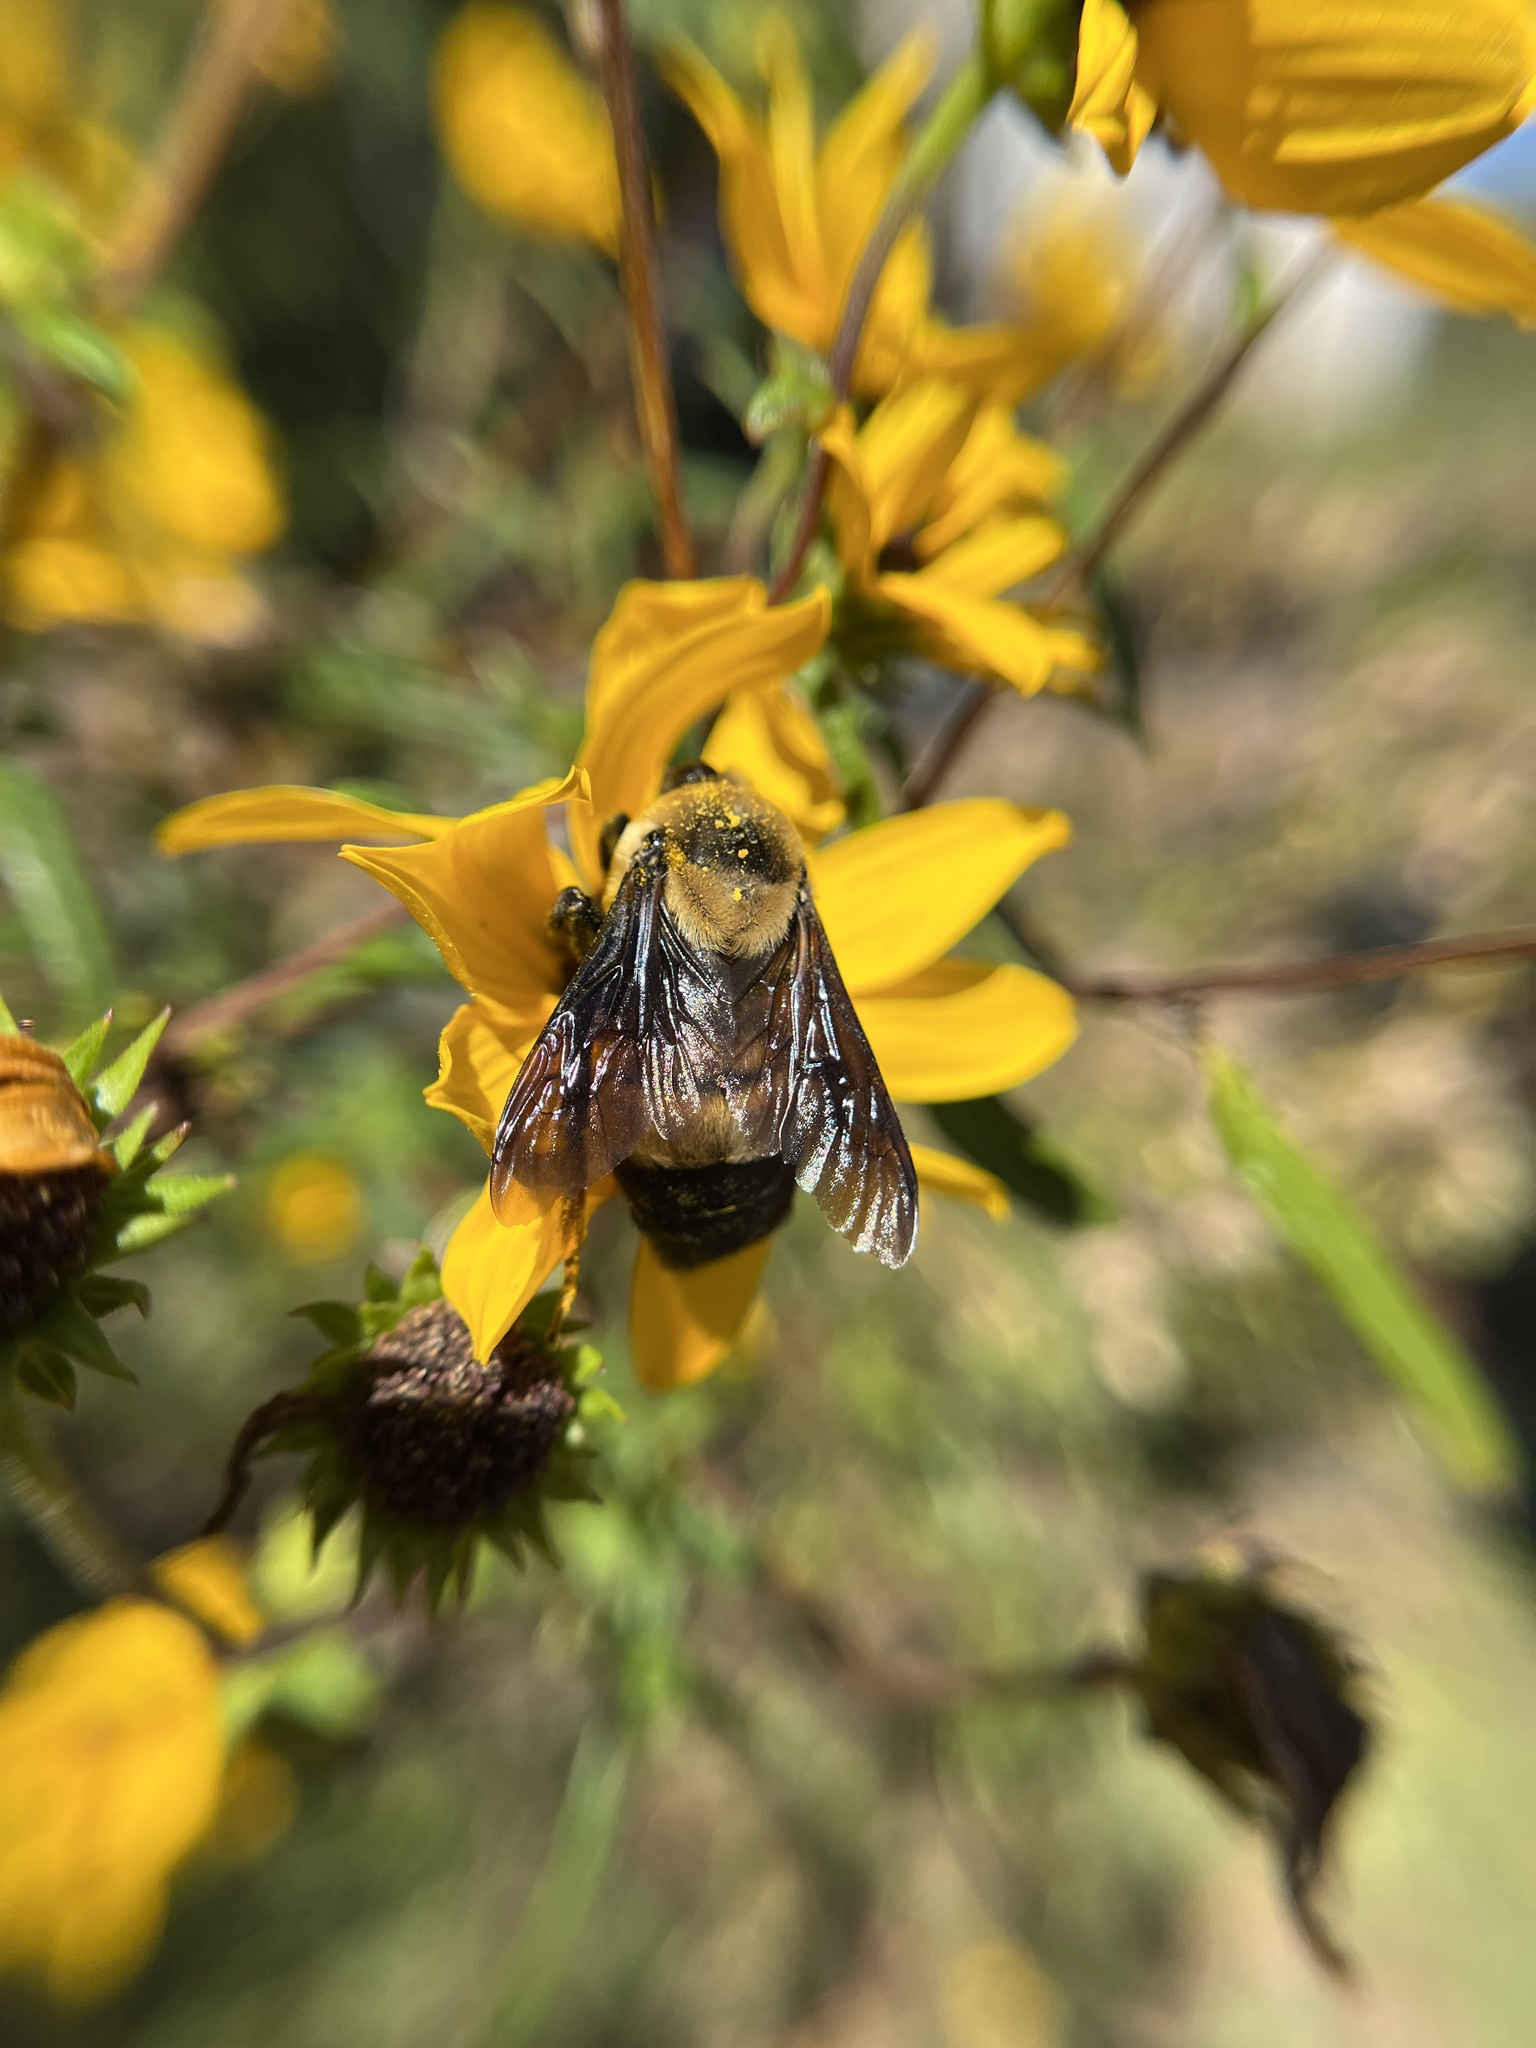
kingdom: Animalia
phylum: Arthropoda
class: Insecta
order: Hymenoptera
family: Apidae
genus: Bombus
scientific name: Bombus fraternus
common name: Southern plains bumble bee
